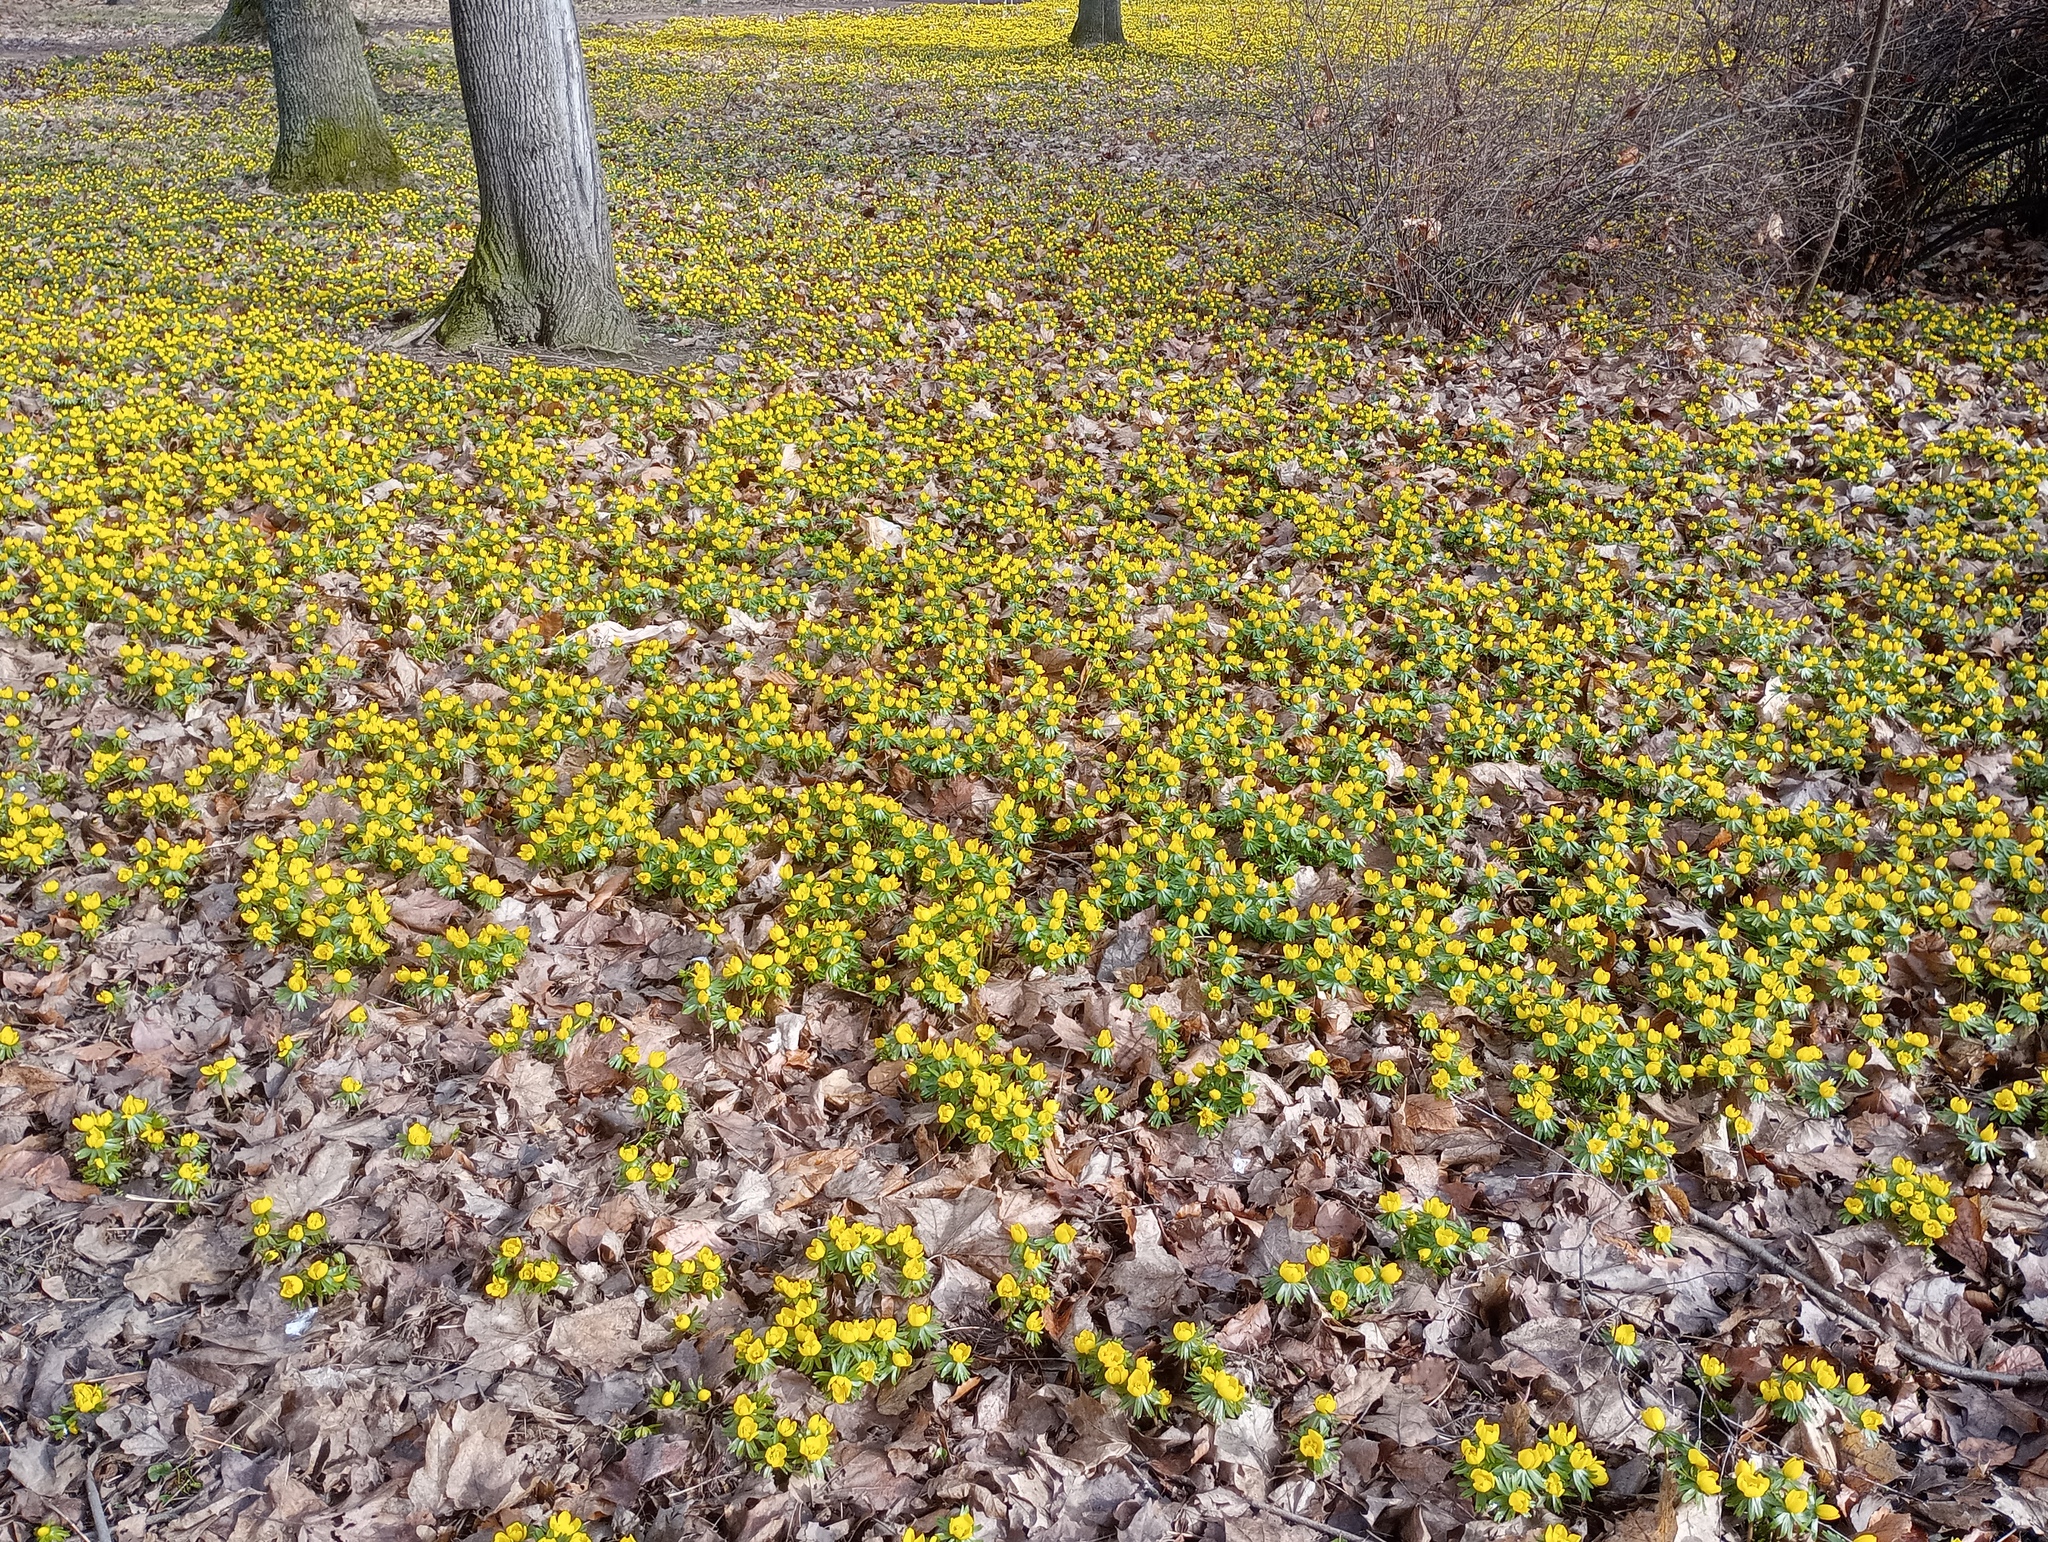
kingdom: Plantae
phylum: Tracheophyta
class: Magnoliopsida
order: Ranunculales
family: Ranunculaceae
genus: Eranthis
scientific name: Eranthis hyemalis
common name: Winter aconite
